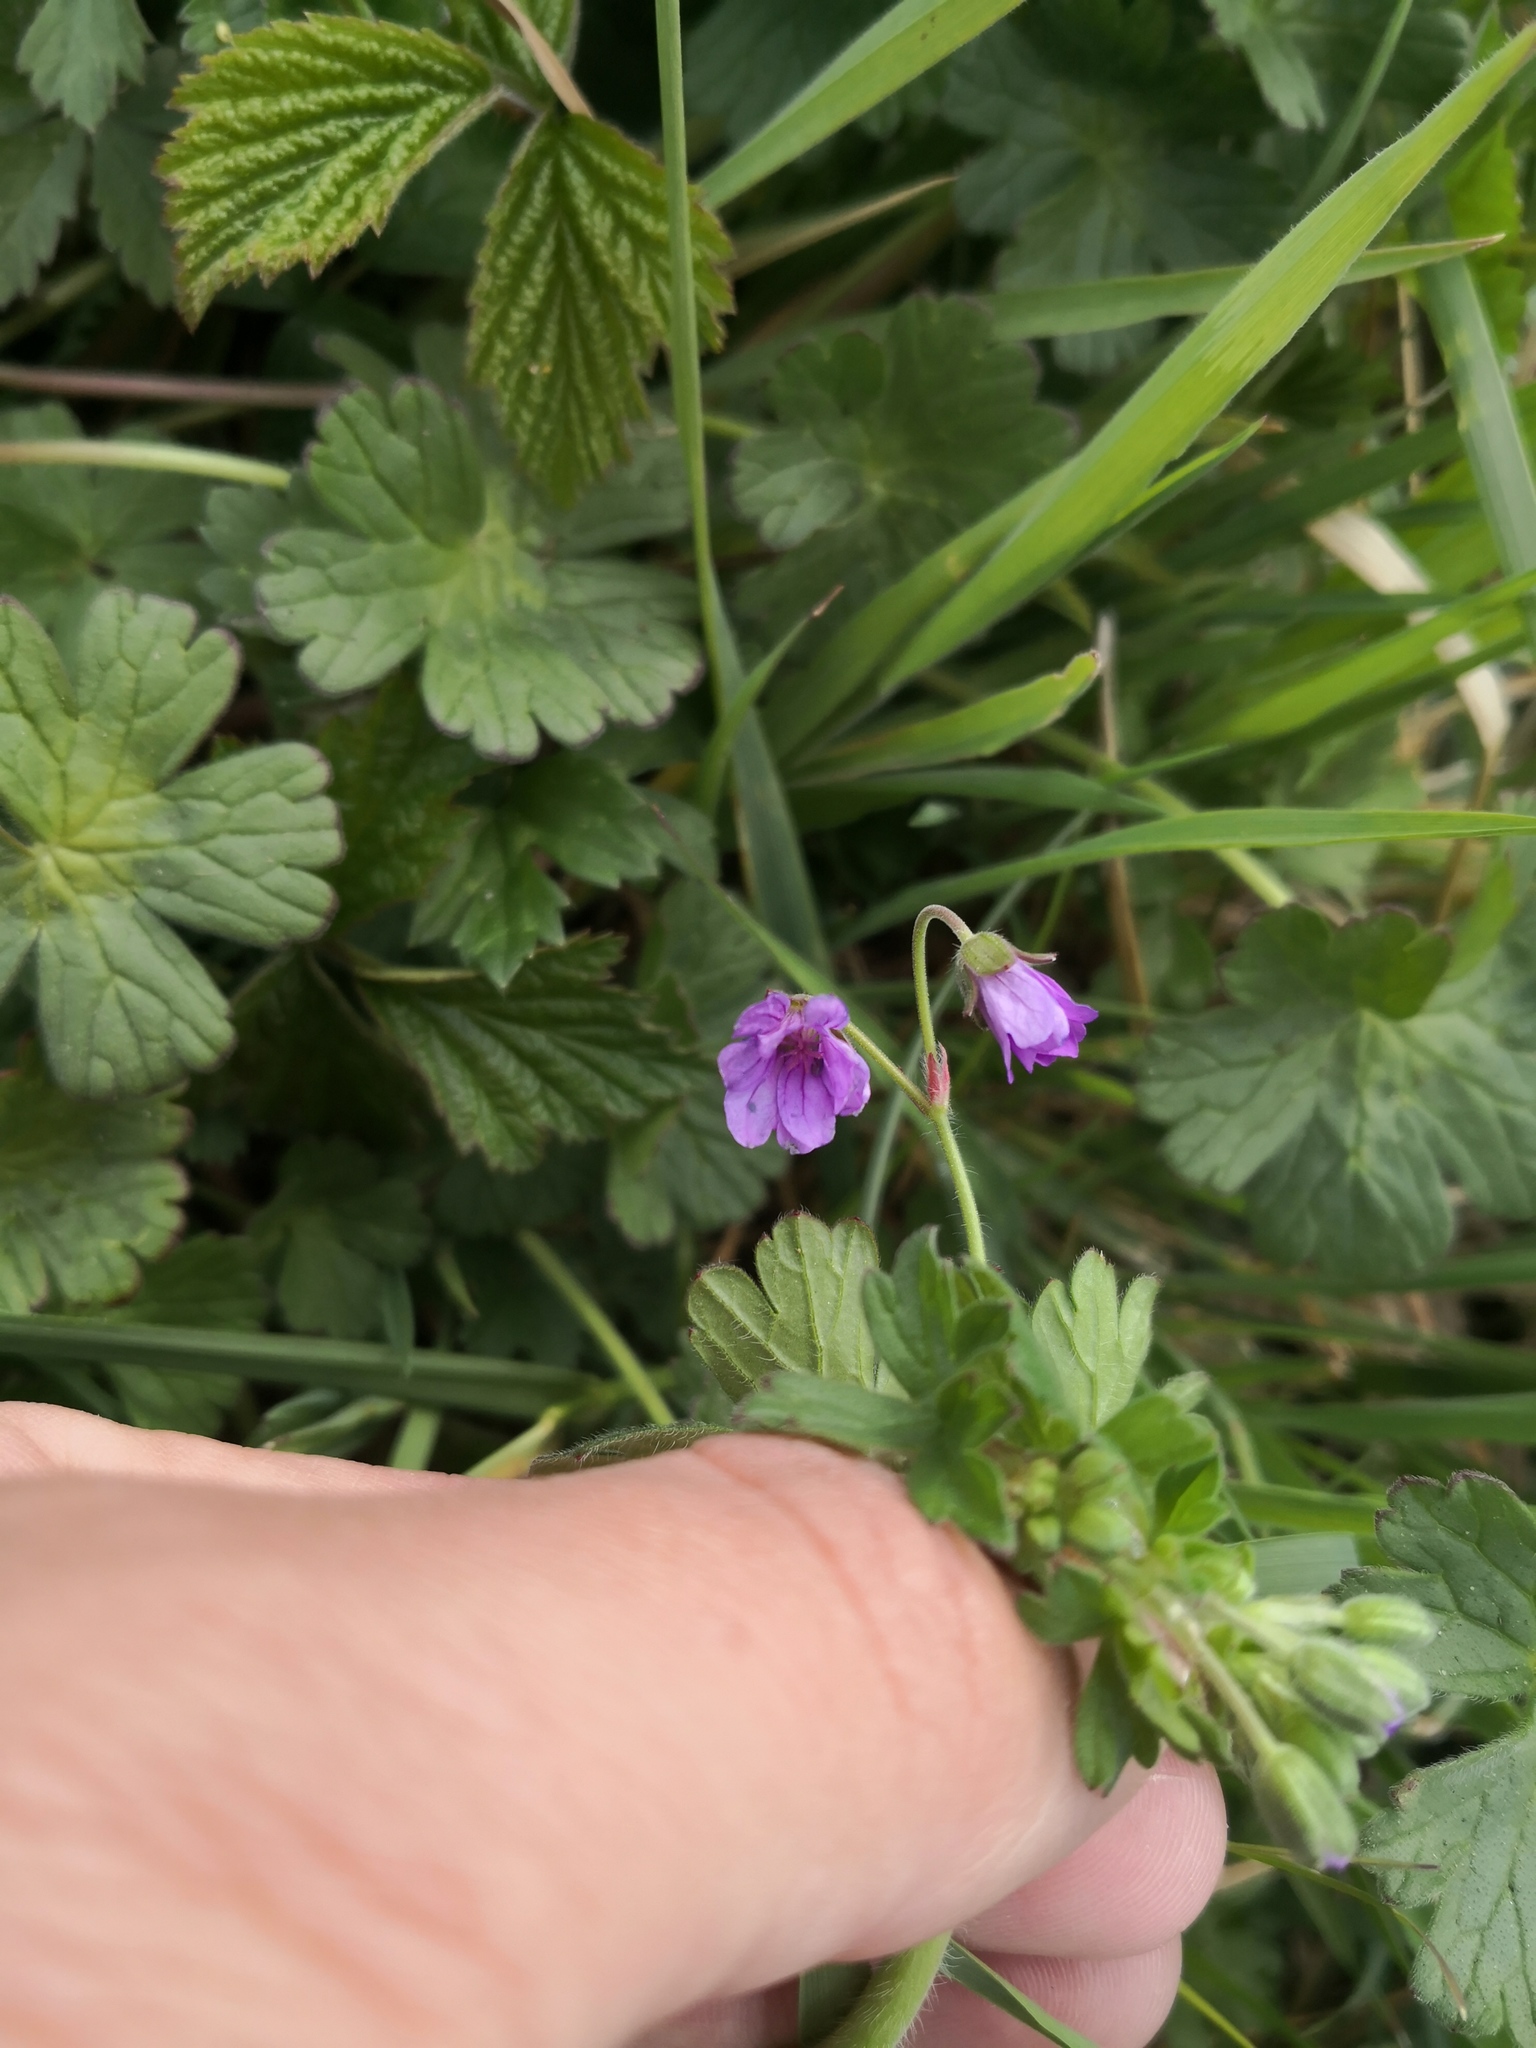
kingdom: Plantae
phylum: Tracheophyta
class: Magnoliopsida
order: Geraniales
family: Geraniaceae
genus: Geranium
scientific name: Geranium pyrenaicum
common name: Hedgerow crane's-bill
